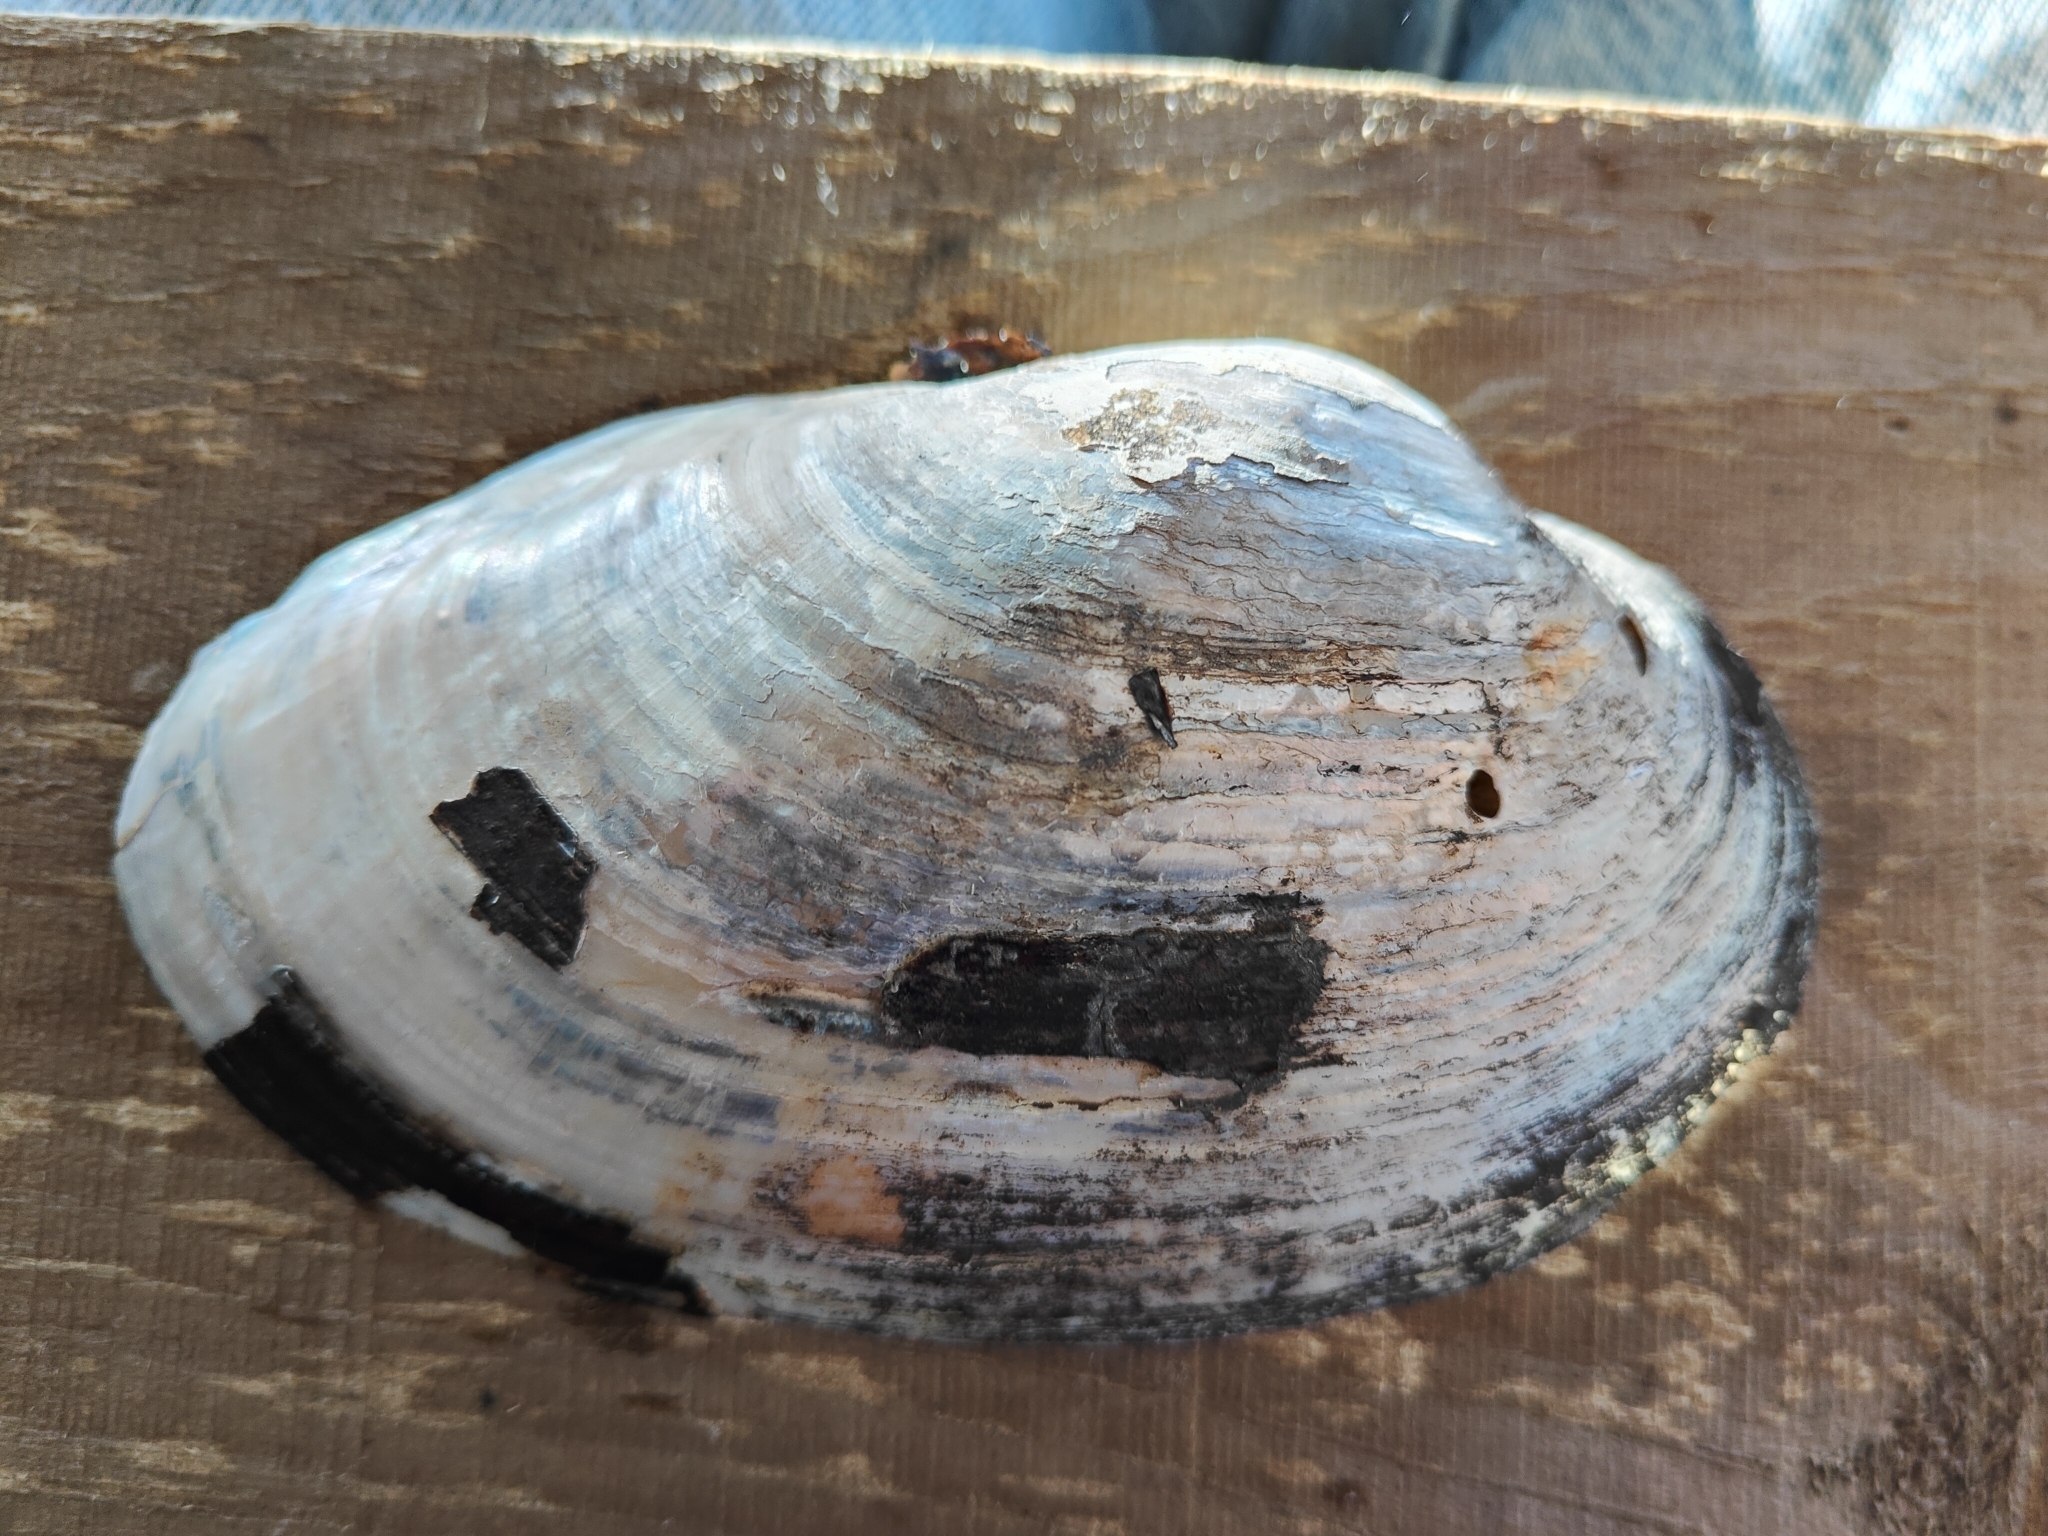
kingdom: Animalia
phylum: Mollusca
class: Bivalvia
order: Unionida
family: Unionidae
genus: Pyganodon
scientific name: Pyganodon grandis
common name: Giant floater
